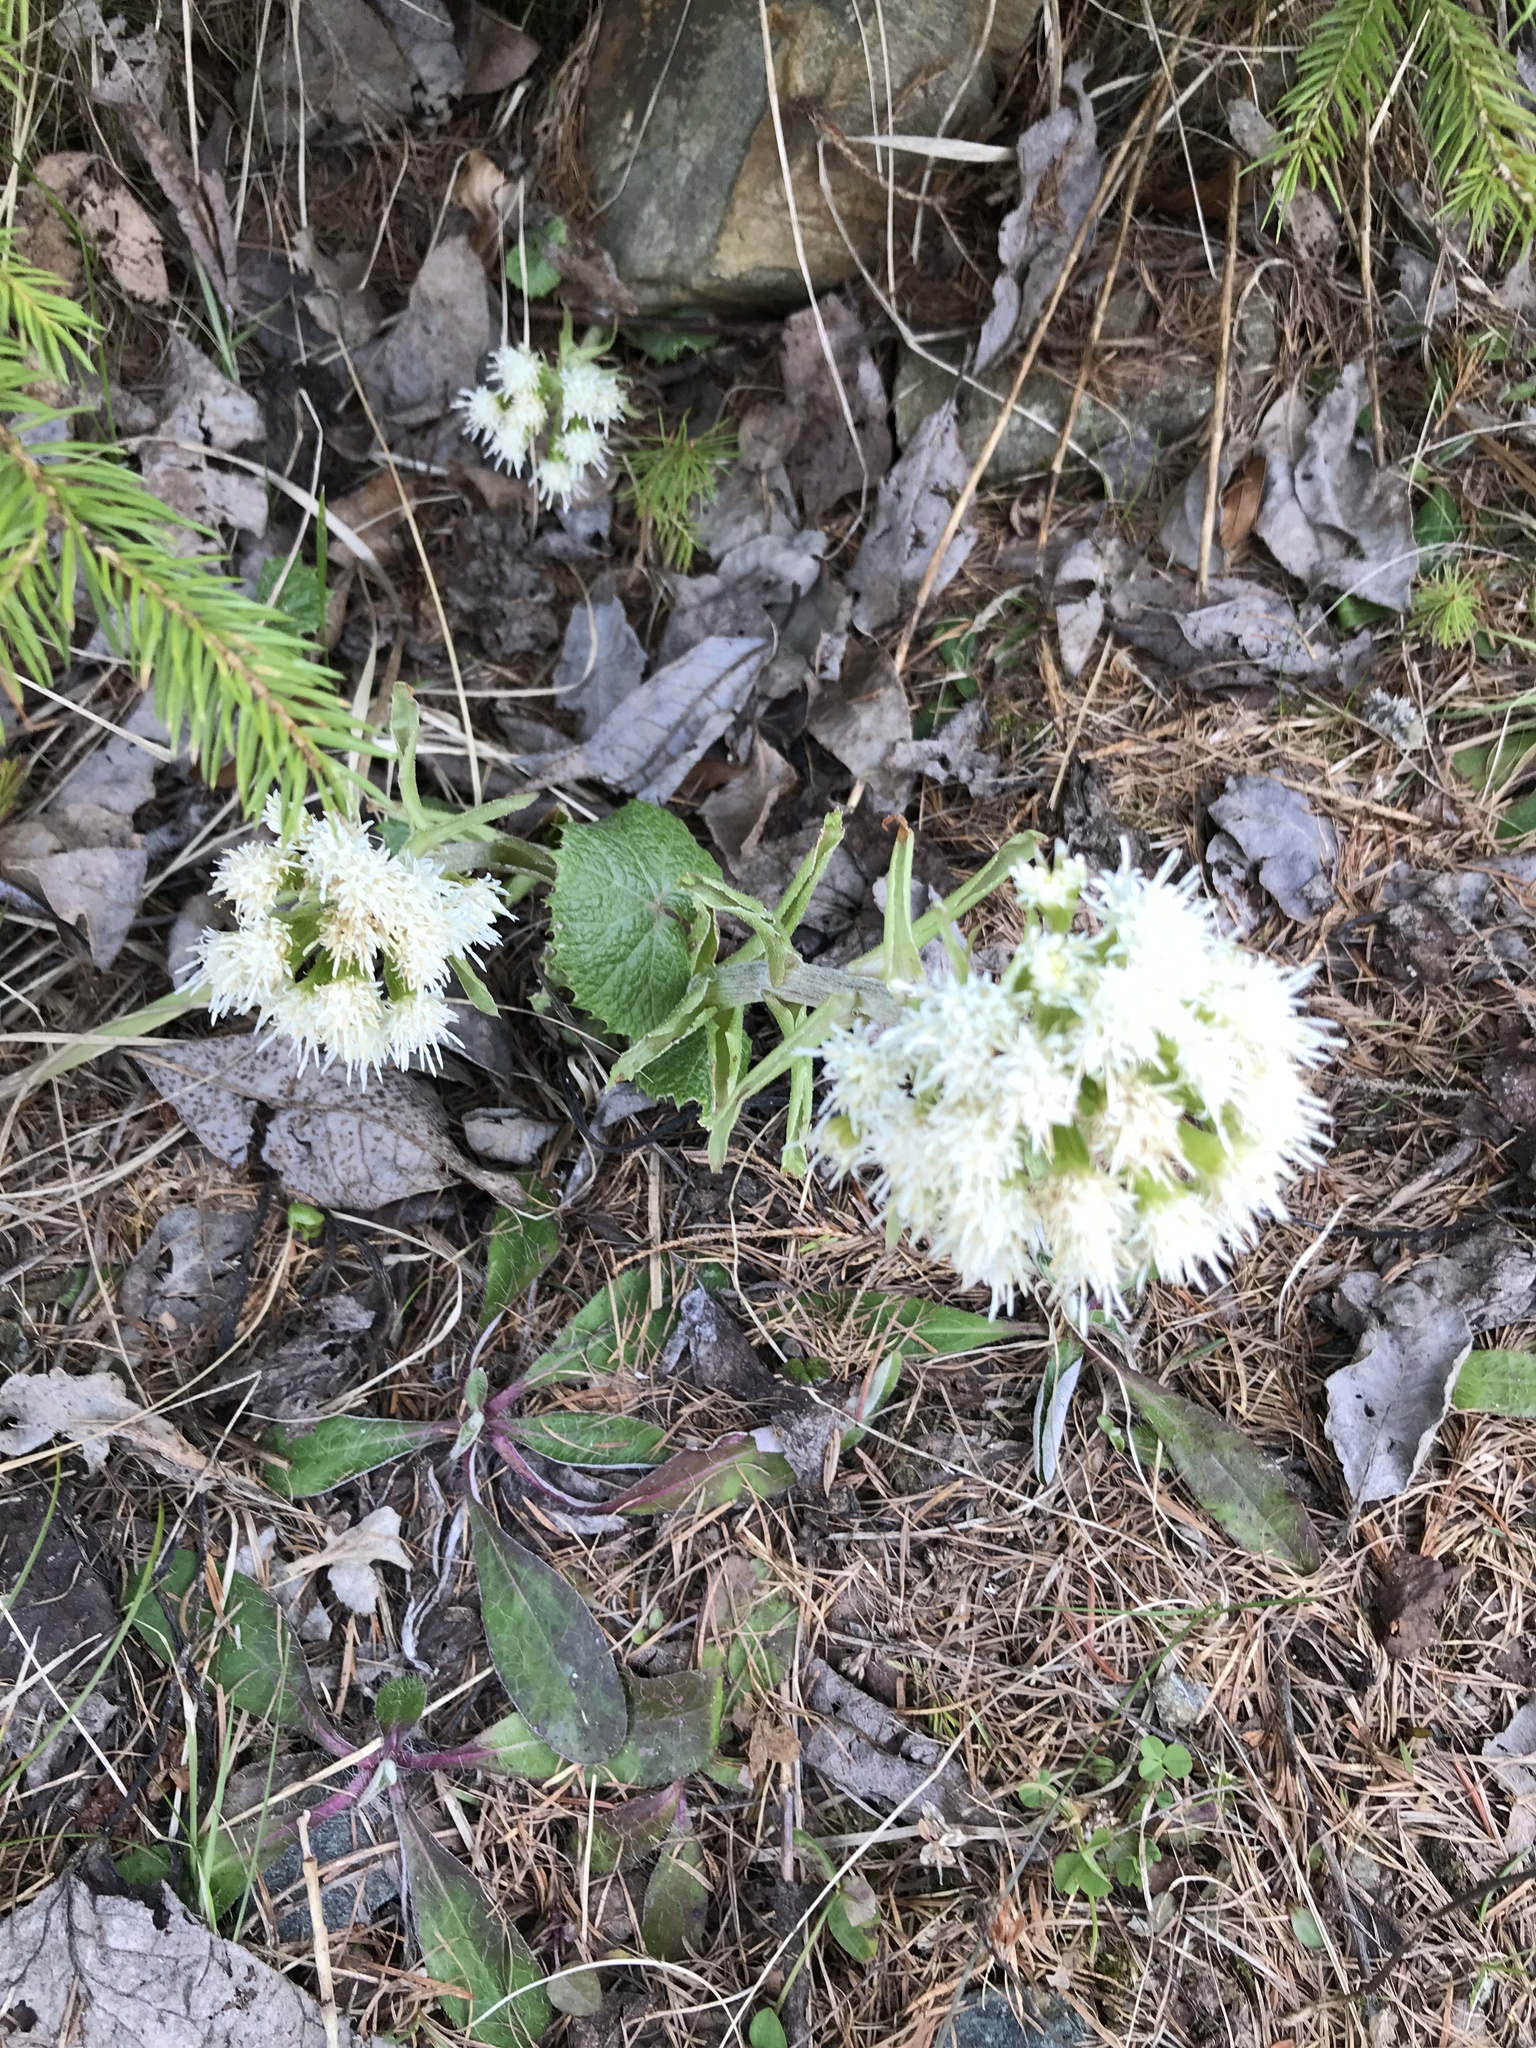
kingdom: Plantae
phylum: Tracheophyta
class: Magnoliopsida
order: Asterales
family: Asteraceae
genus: Petasites
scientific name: Petasites albus
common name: White butterbur
